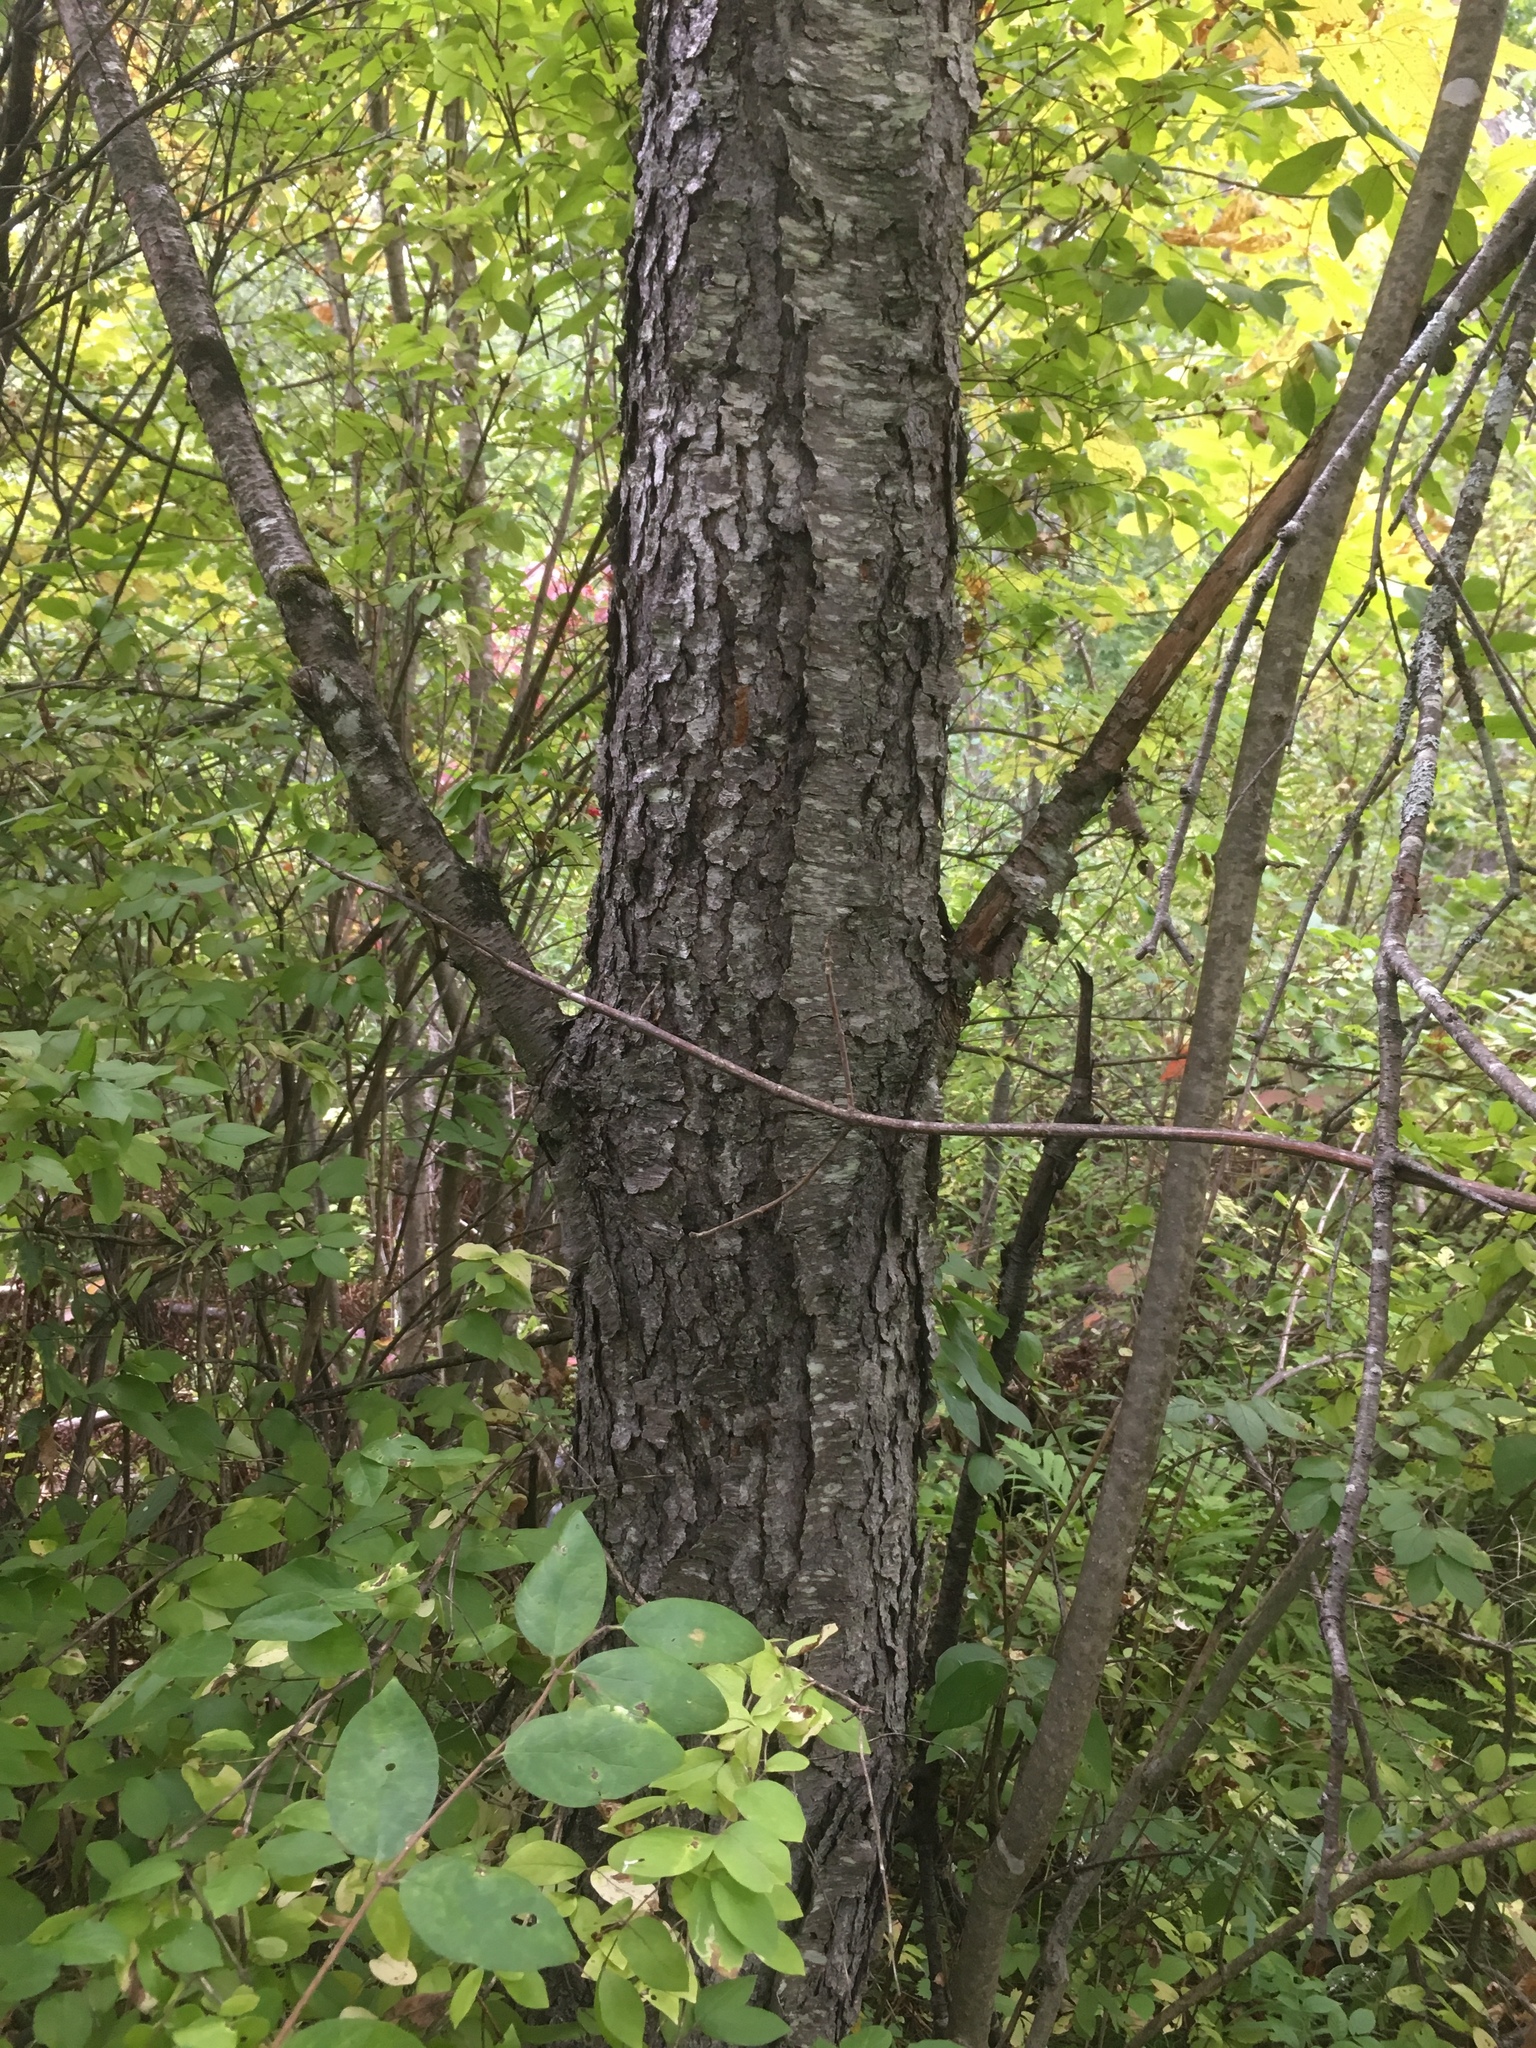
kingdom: Plantae
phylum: Tracheophyta
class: Magnoliopsida
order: Rosales
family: Rosaceae
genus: Prunus
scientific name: Prunus serotina
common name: Black cherry
